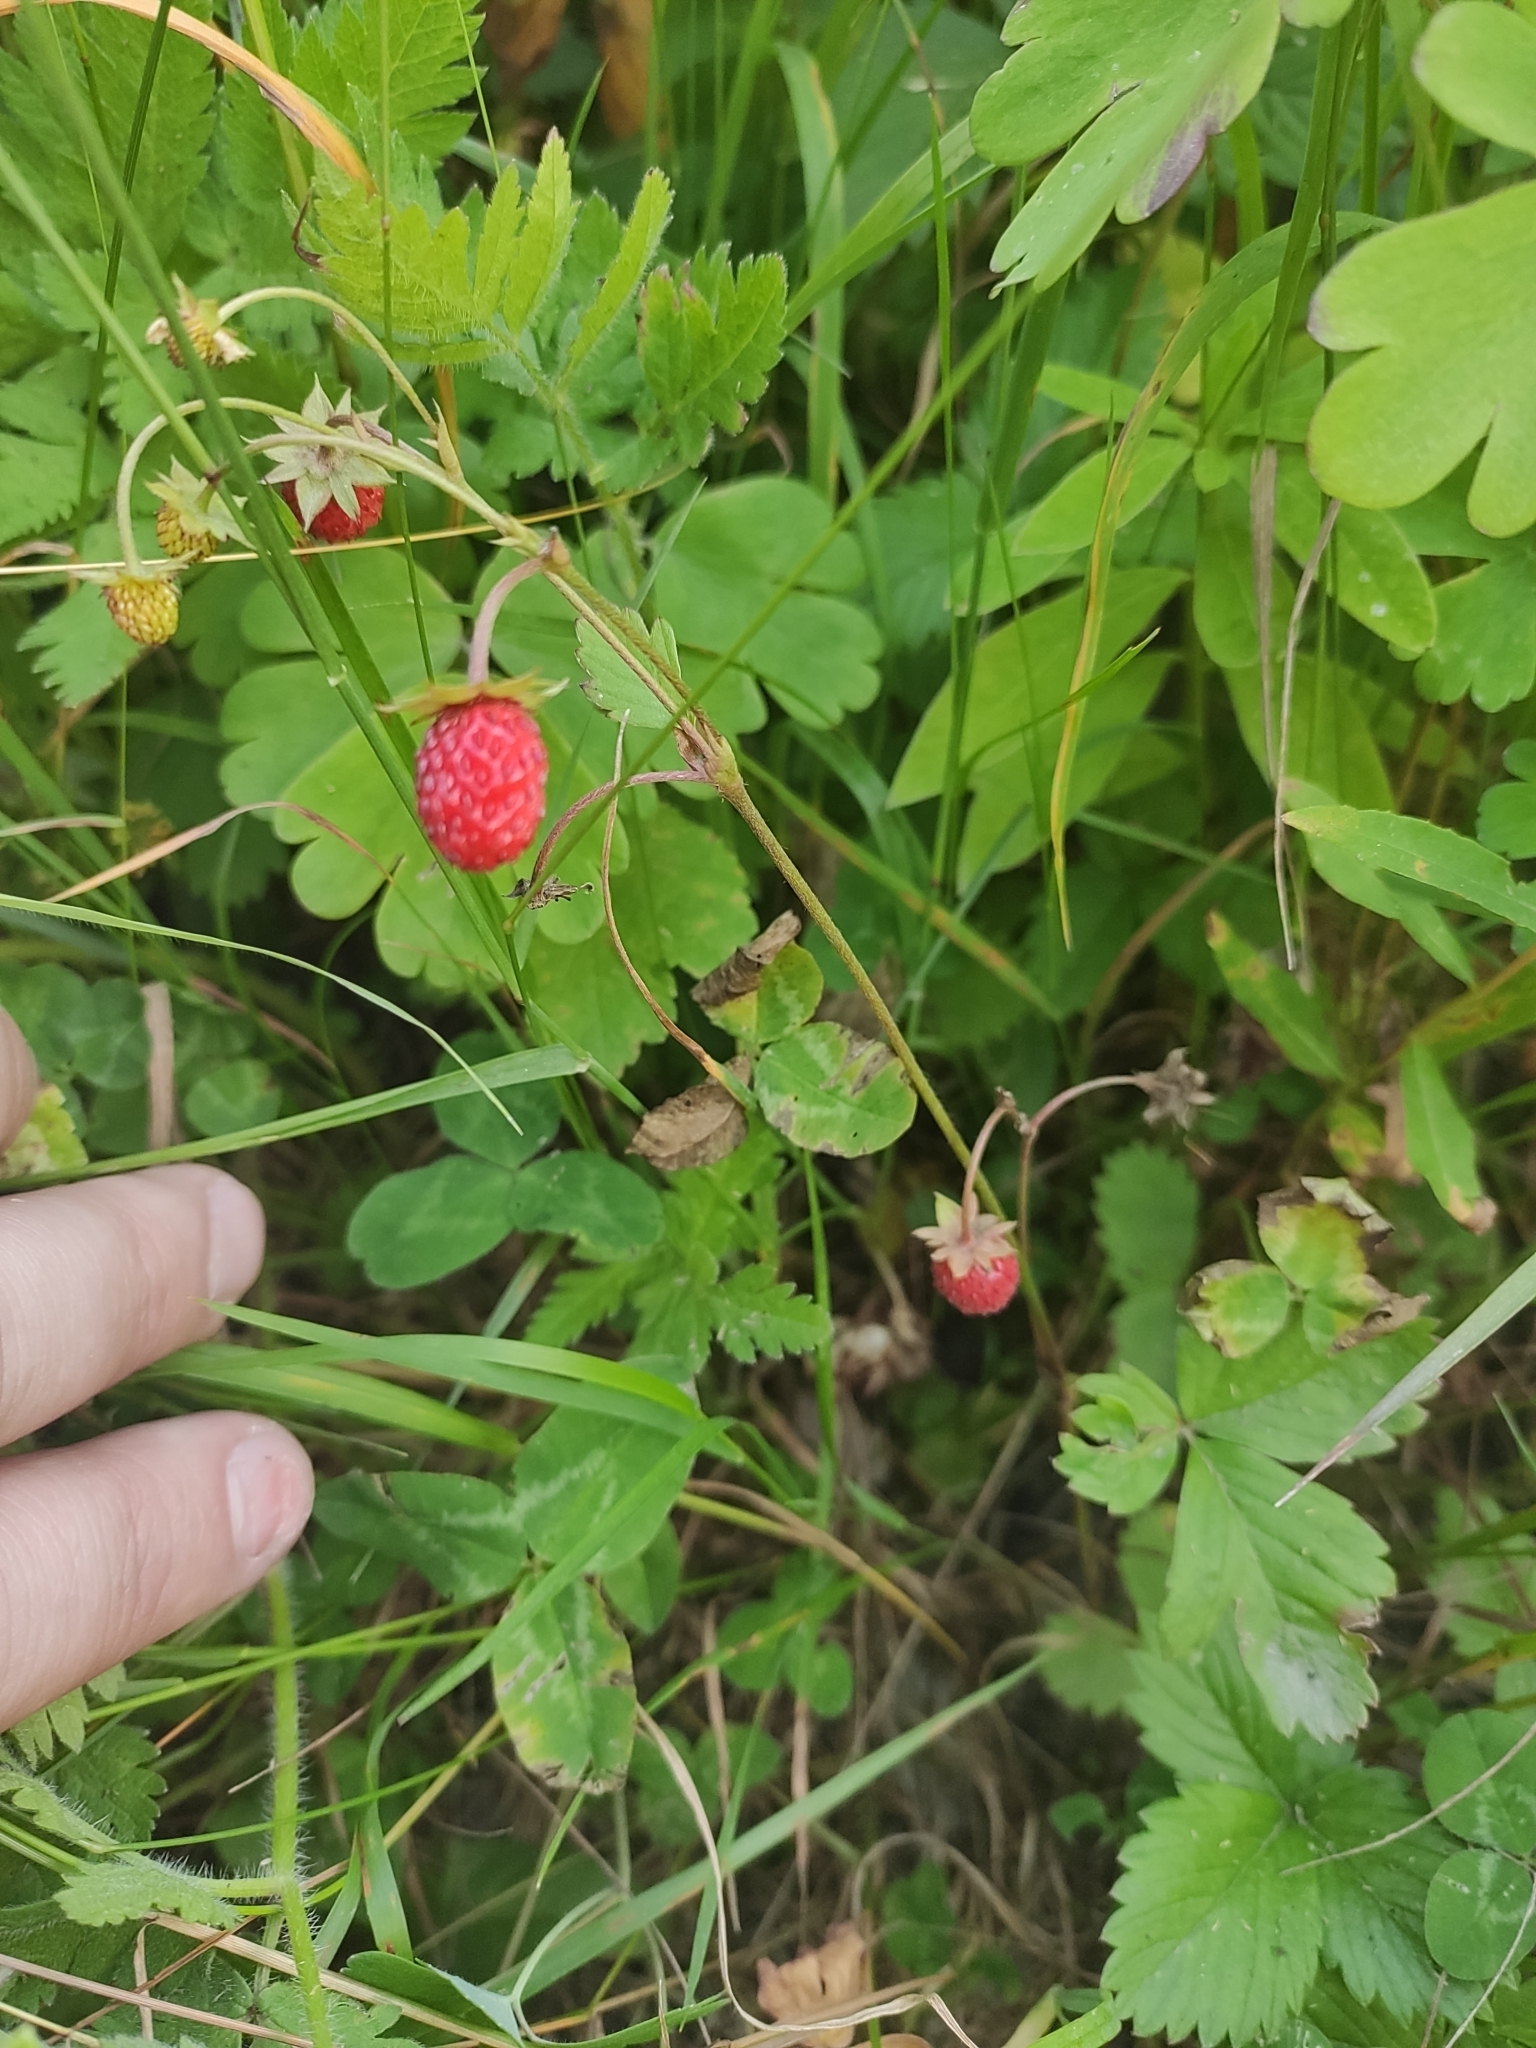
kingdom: Plantae
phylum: Tracheophyta
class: Magnoliopsida
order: Rosales
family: Rosaceae
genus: Fragaria
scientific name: Fragaria vesca
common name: Wild strawberry
